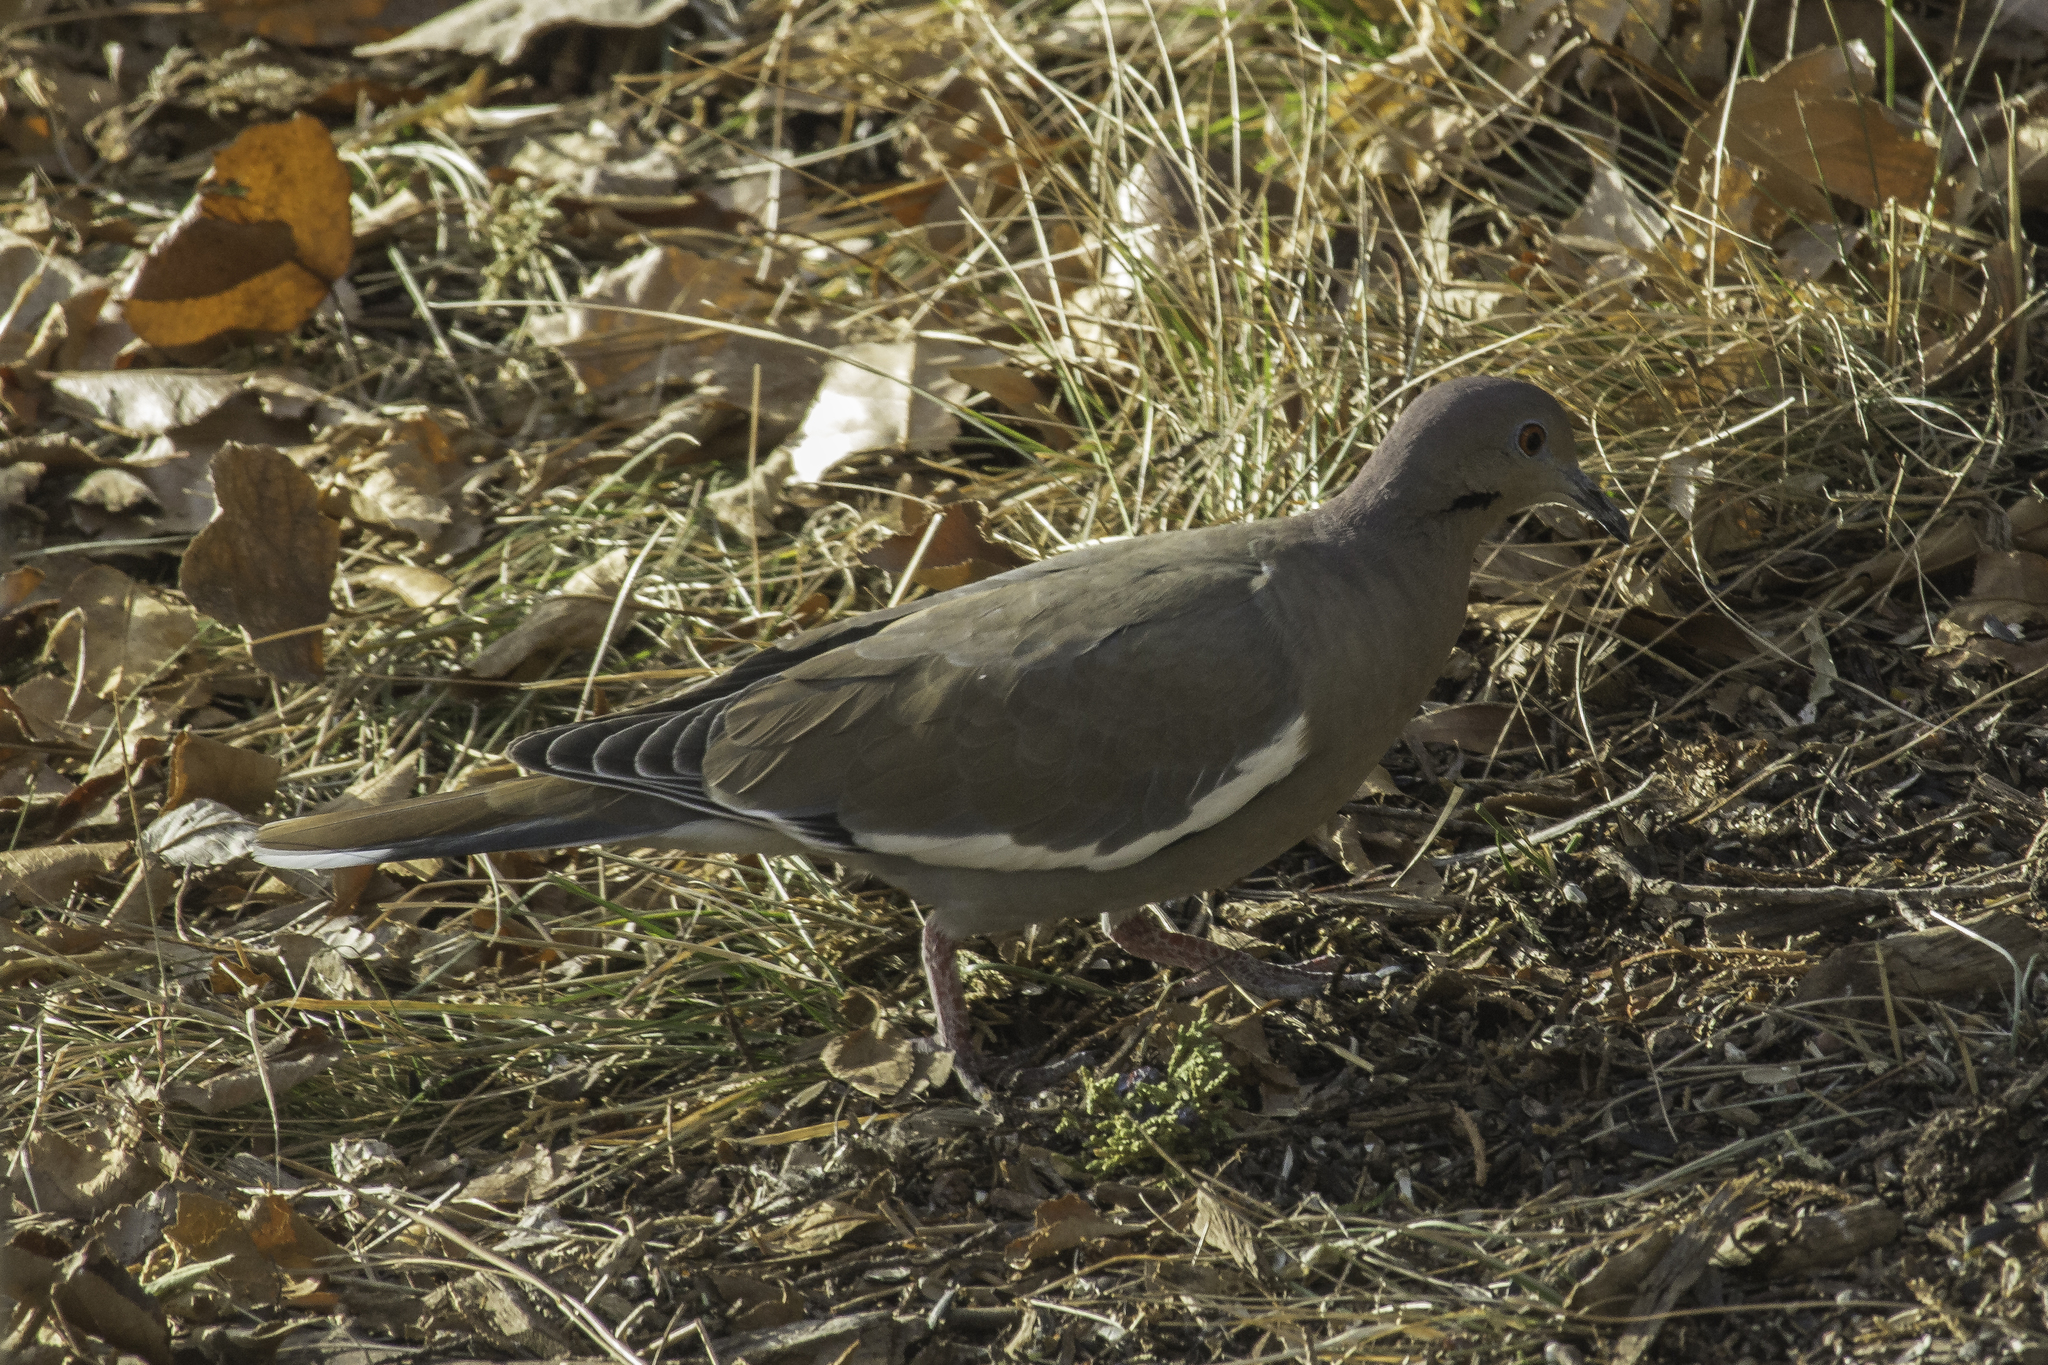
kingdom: Animalia
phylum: Chordata
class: Aves
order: Columbiformes
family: Columbidae
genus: Zenaida
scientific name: Zenaida asiatica
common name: White-winged dove
